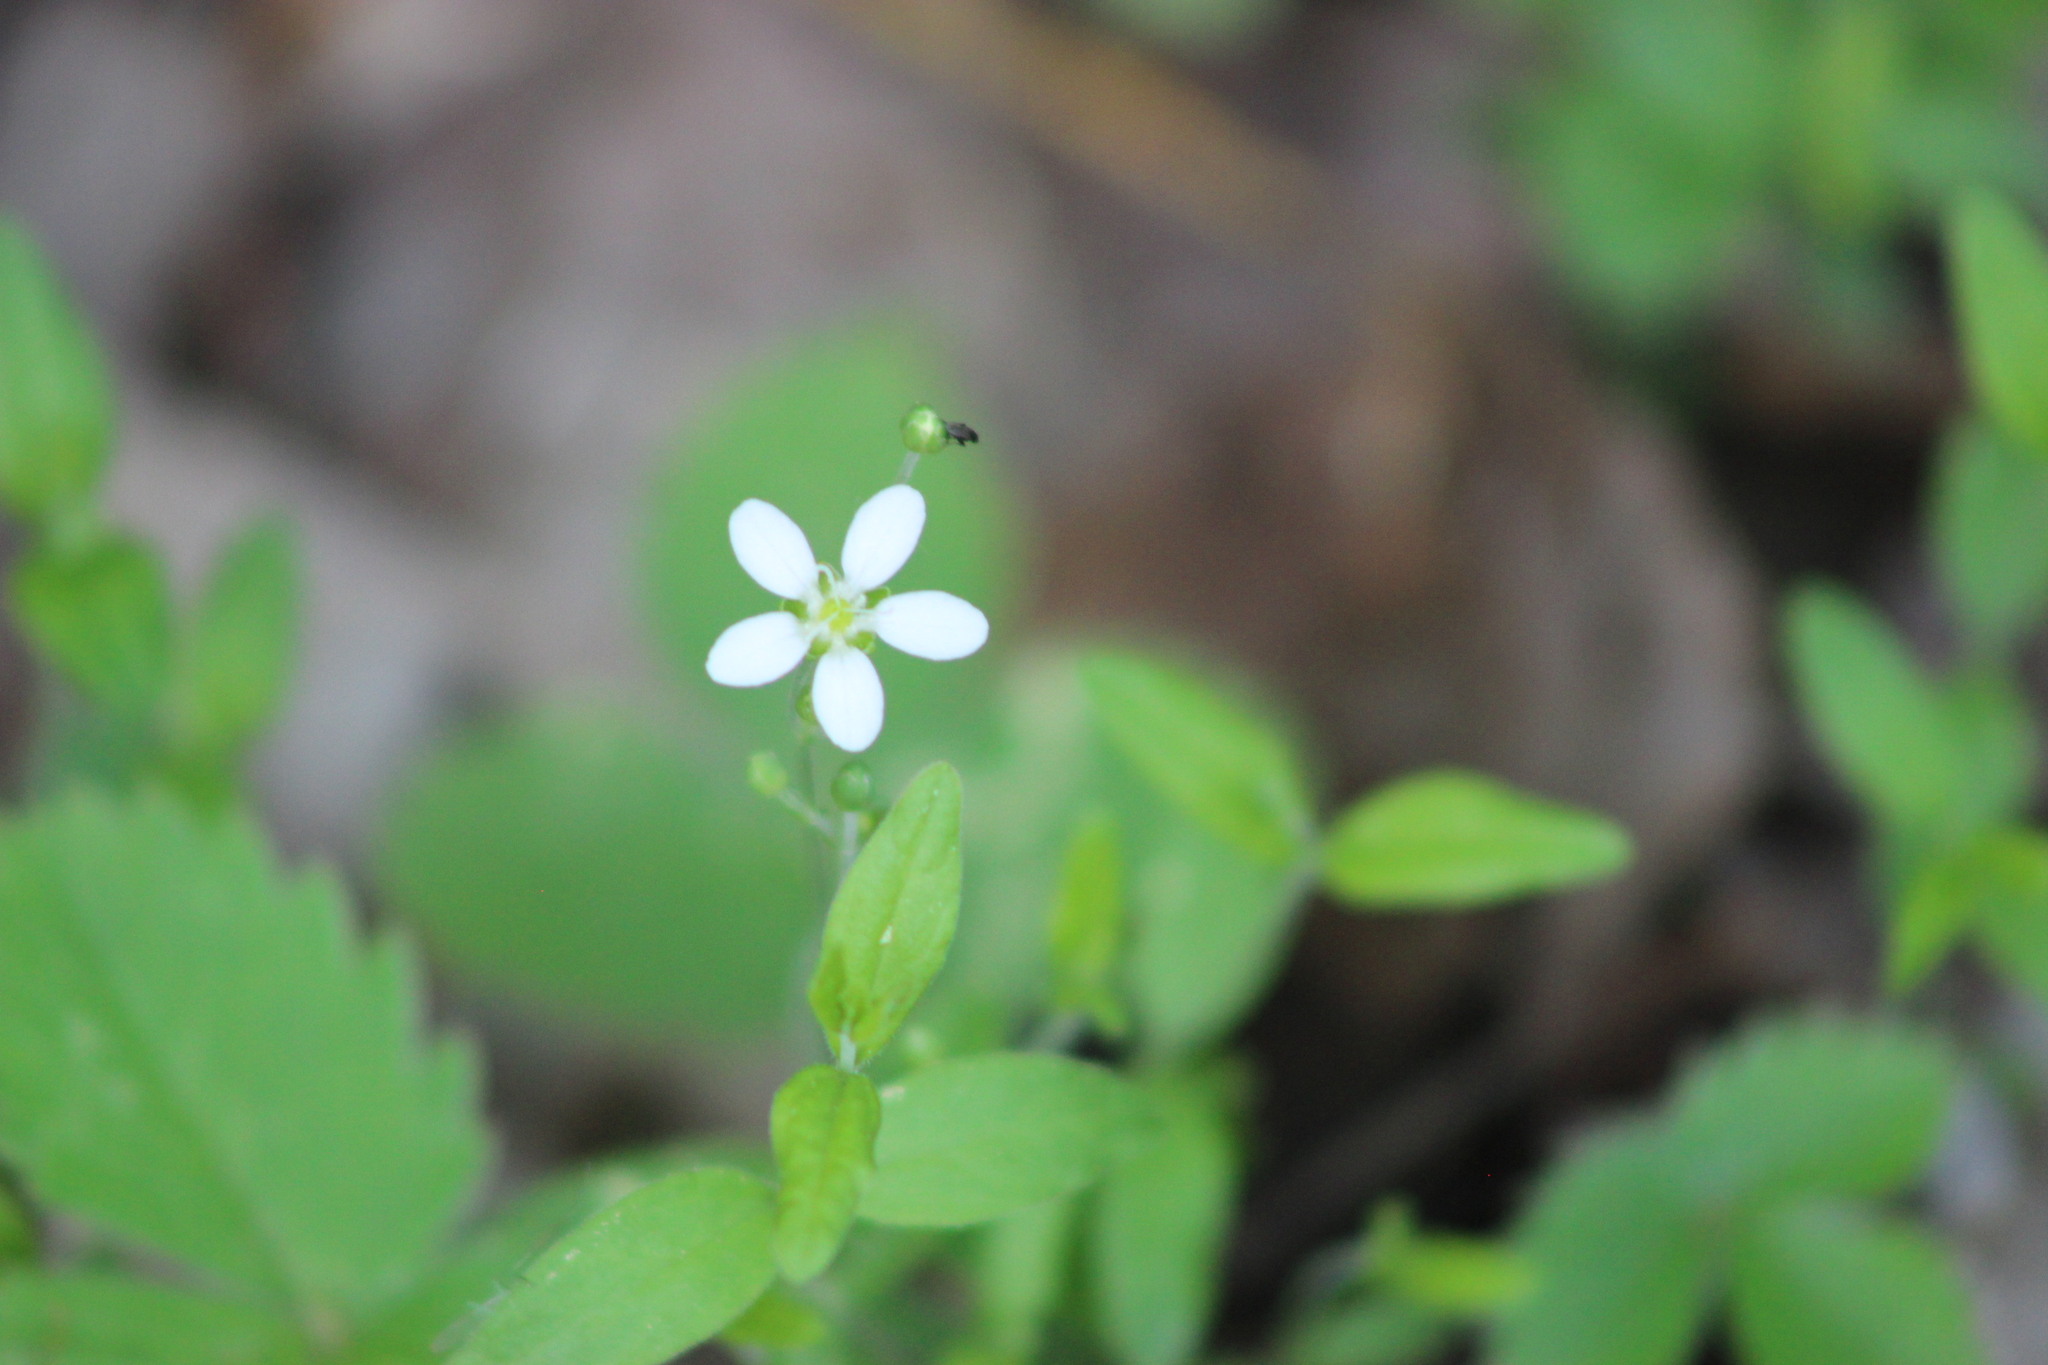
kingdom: Plantae
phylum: Tracheophyta
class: Magnoliopsida
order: Caryophyllales
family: Caryophyllaceae
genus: Moehringia
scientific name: Moehringia lateriflora
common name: Blunt-leaved sandwort
